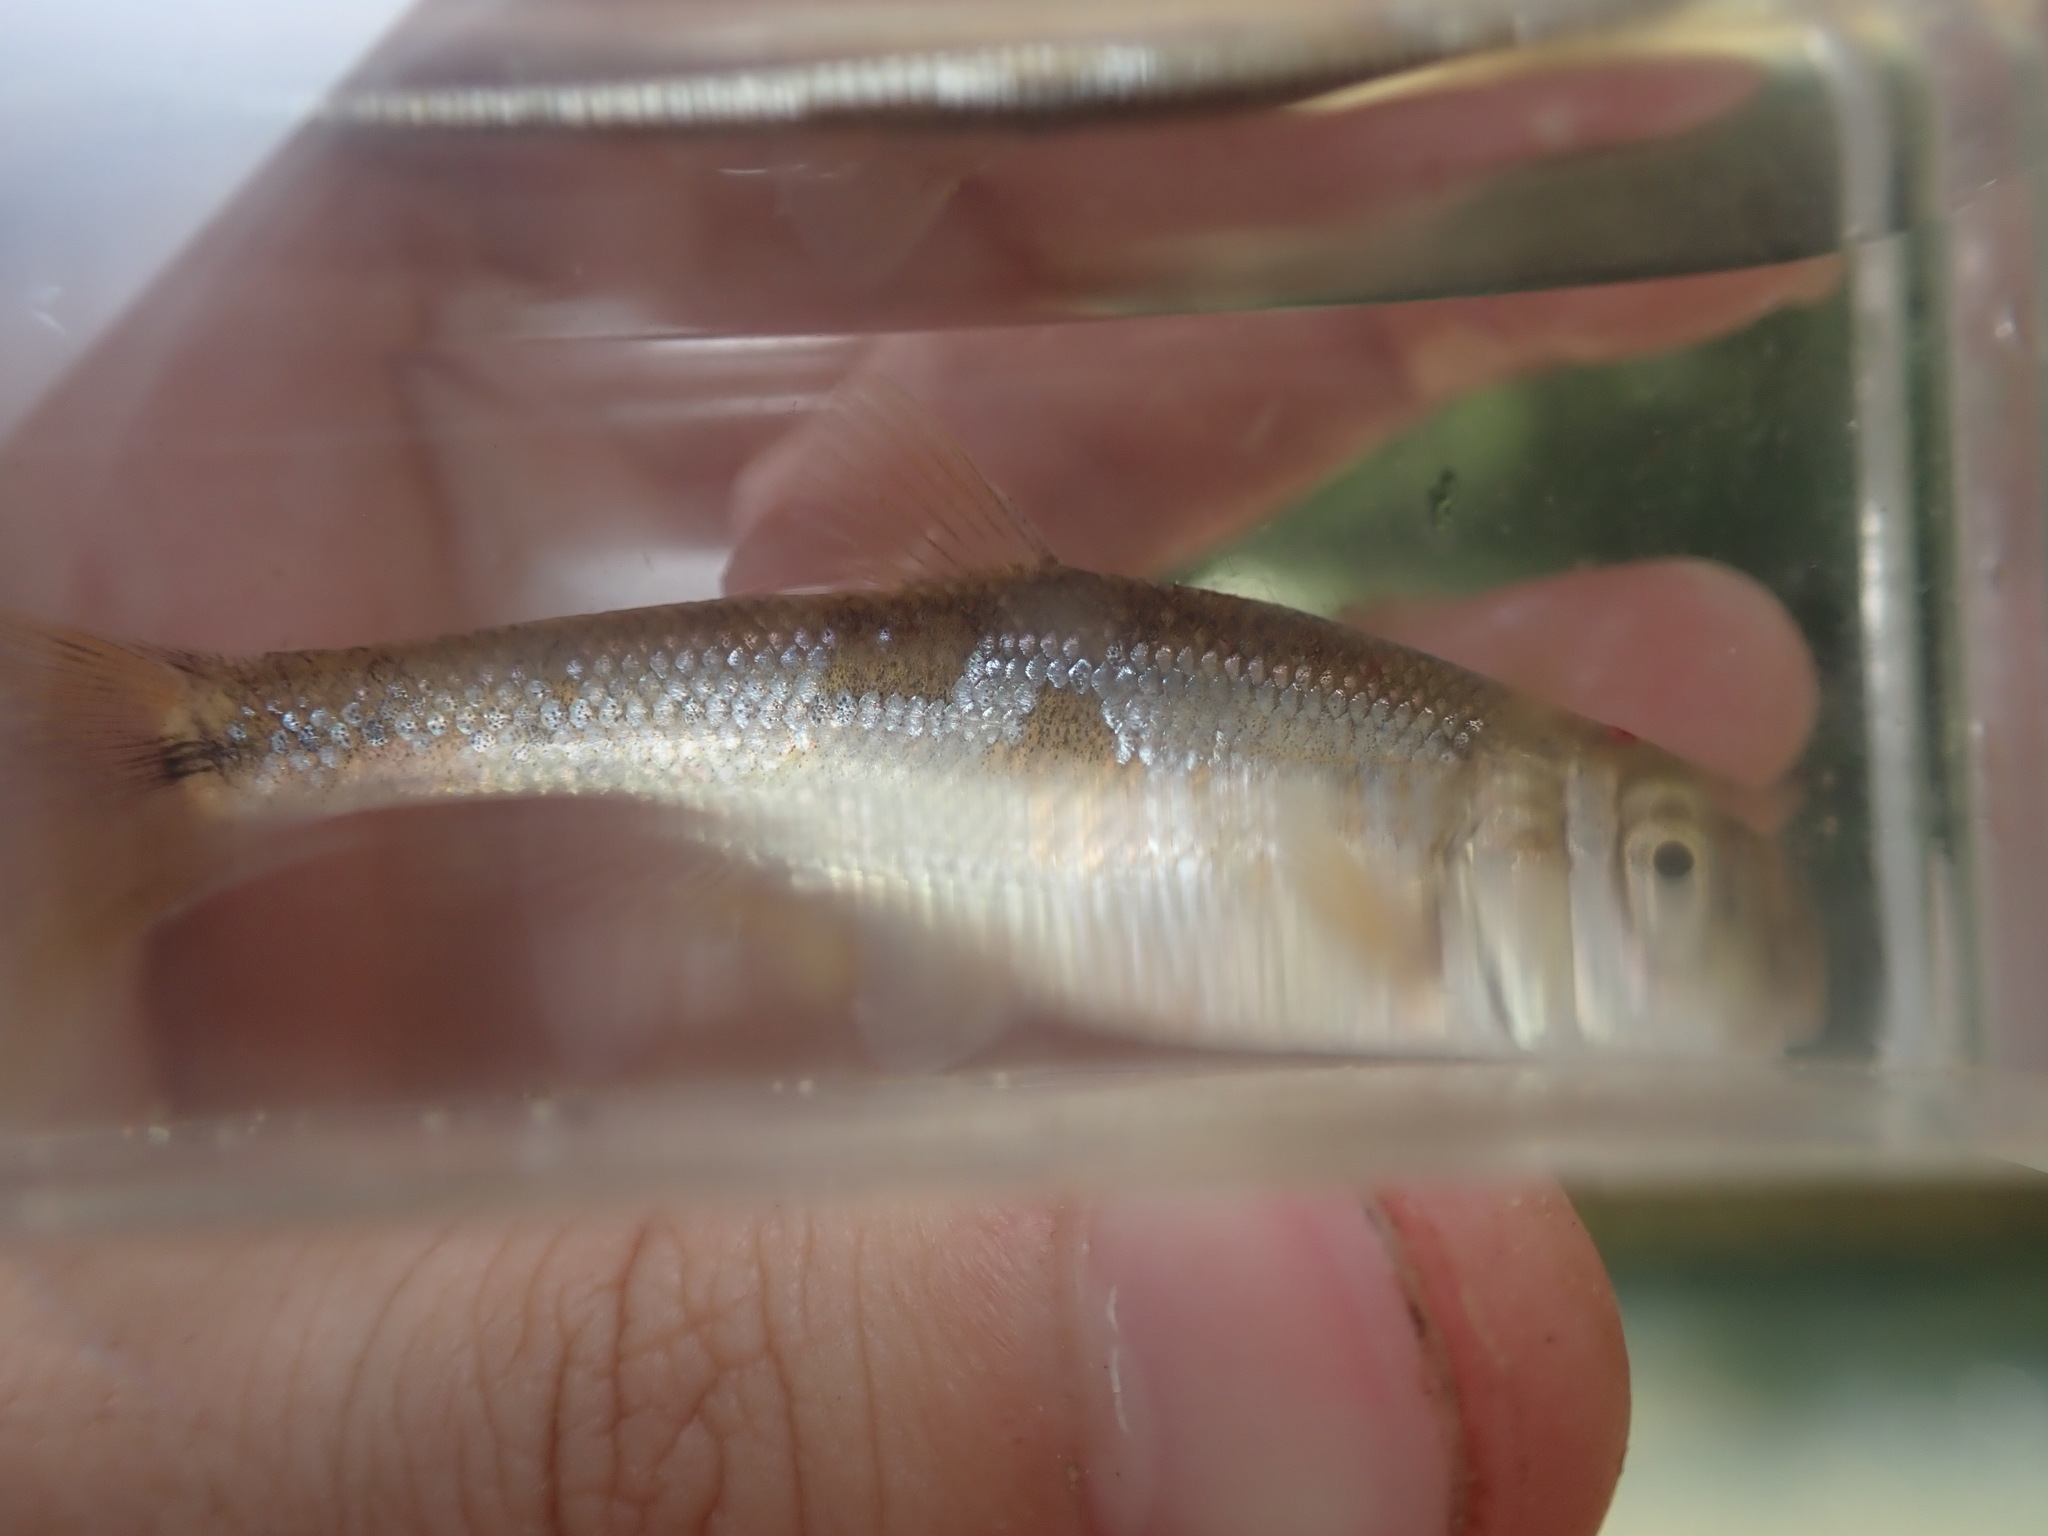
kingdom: Animalia
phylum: Chordata
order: Cypriniformes
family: Cyprinidae
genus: Campostoma
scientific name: Campostoma oligolepis
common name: Largescale stoneroller
